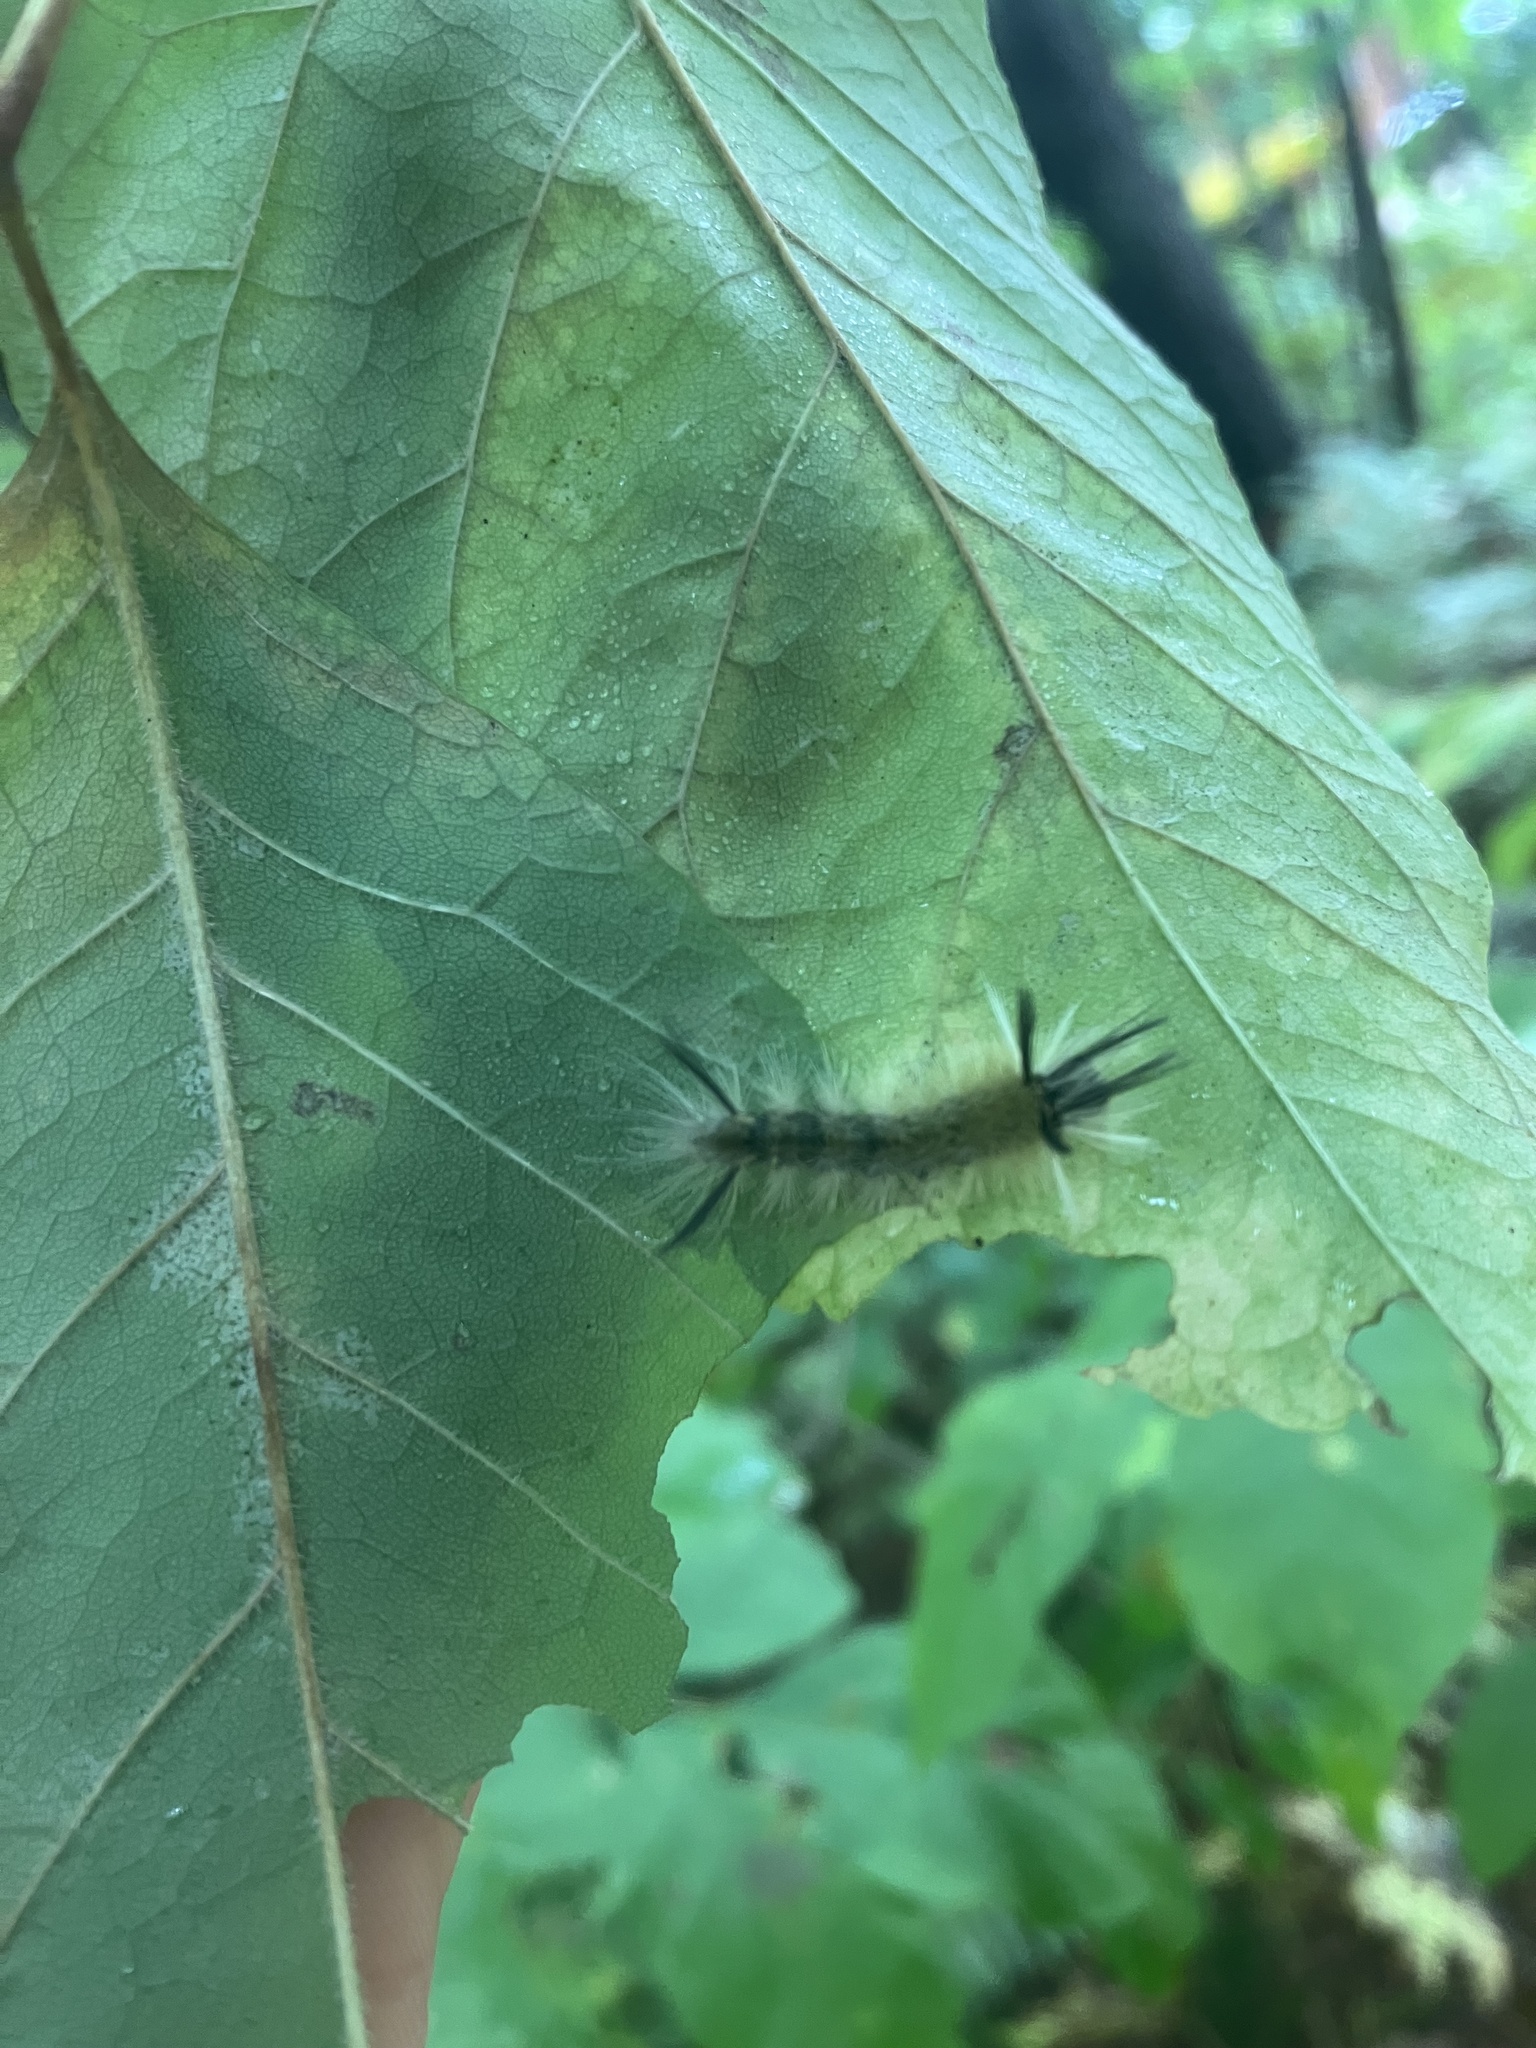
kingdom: Animalia
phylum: Arthropoda
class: Insecta
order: Lepidoptera
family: Erebidae
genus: Halysidota
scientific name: Halysidota tessellaris
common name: Banded tussock moth
